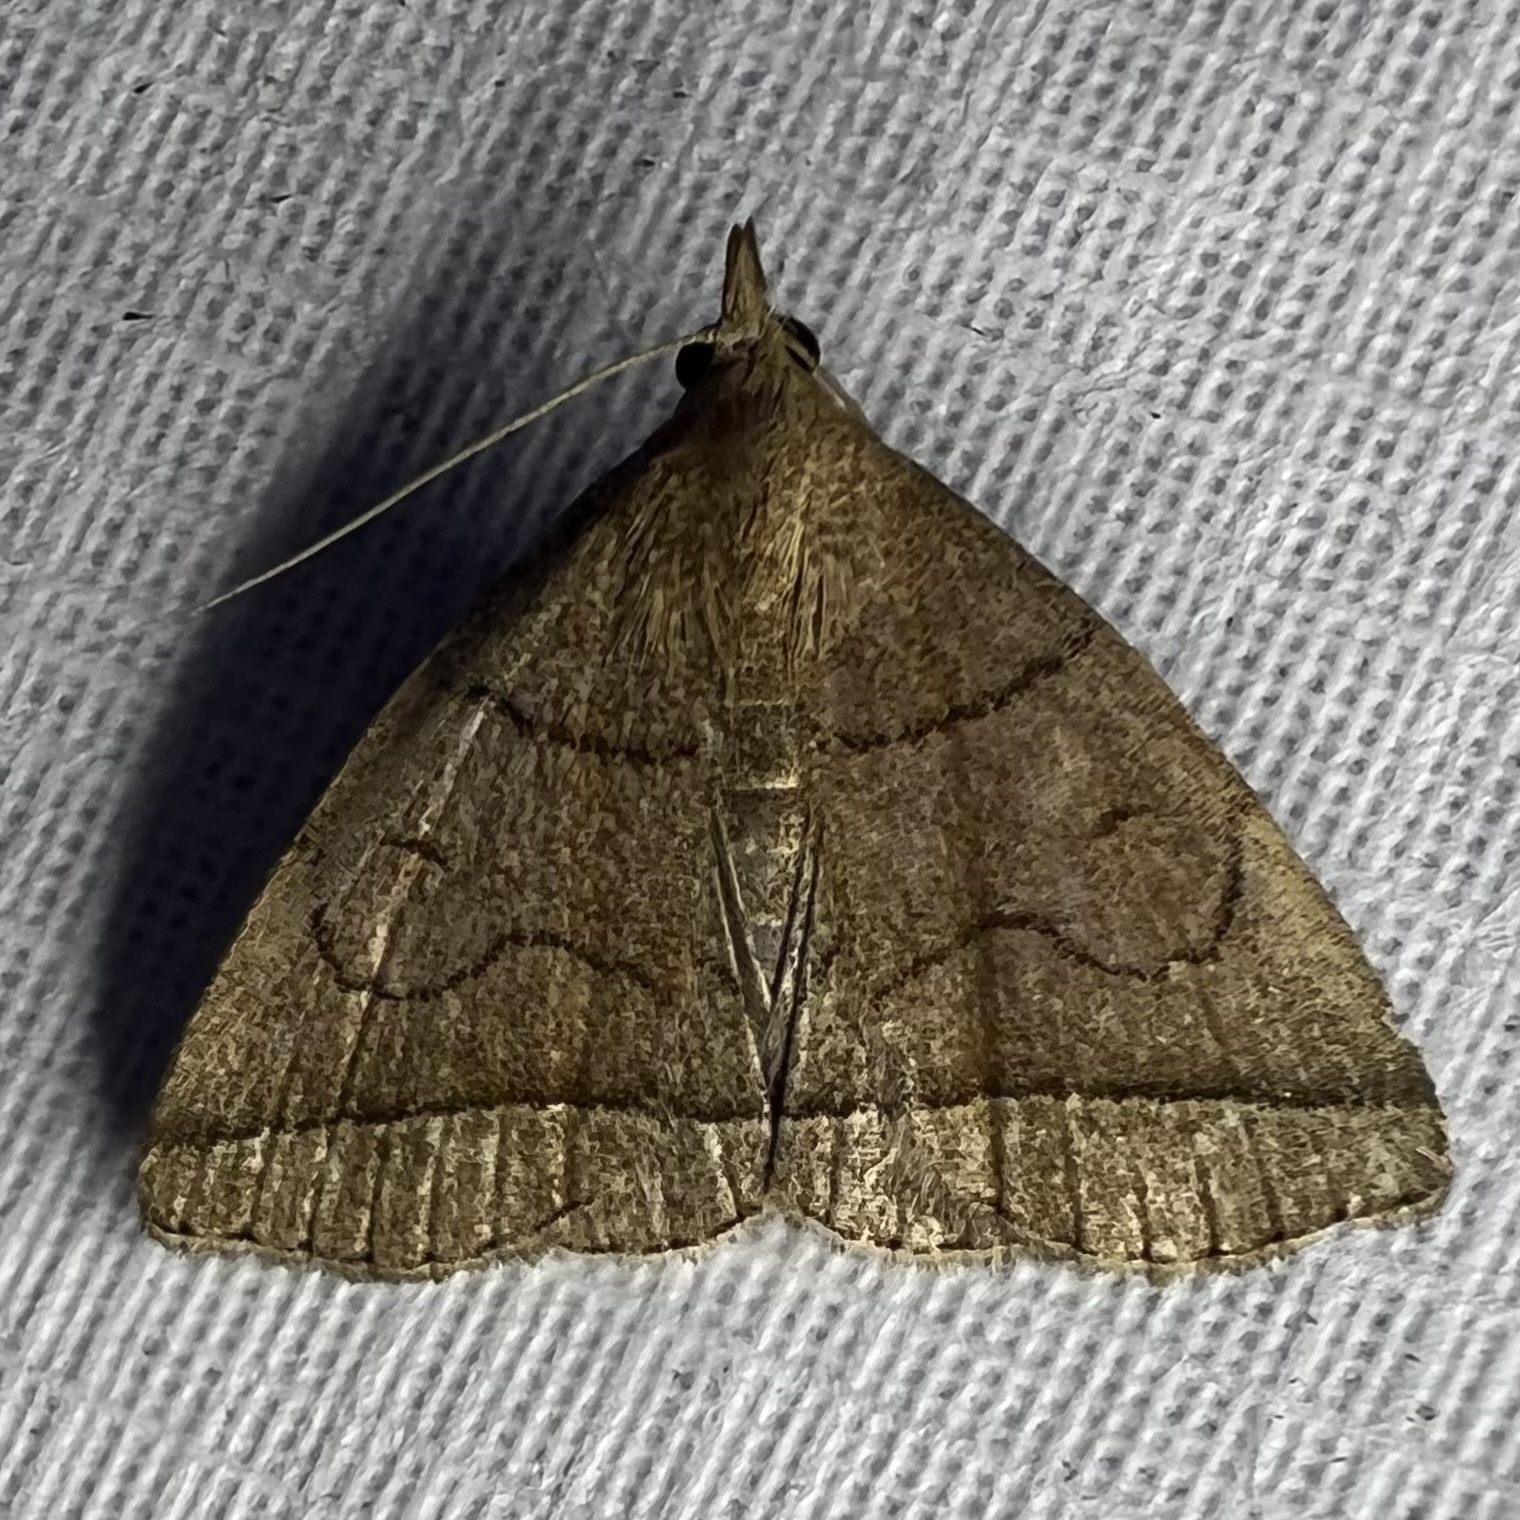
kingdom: Animalia
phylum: Arthropoda
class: Insecta
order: Lepidoptera
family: Erebidae
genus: Zanclognatha
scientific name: Zanclognatha cruralis
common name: Early fan-foot
